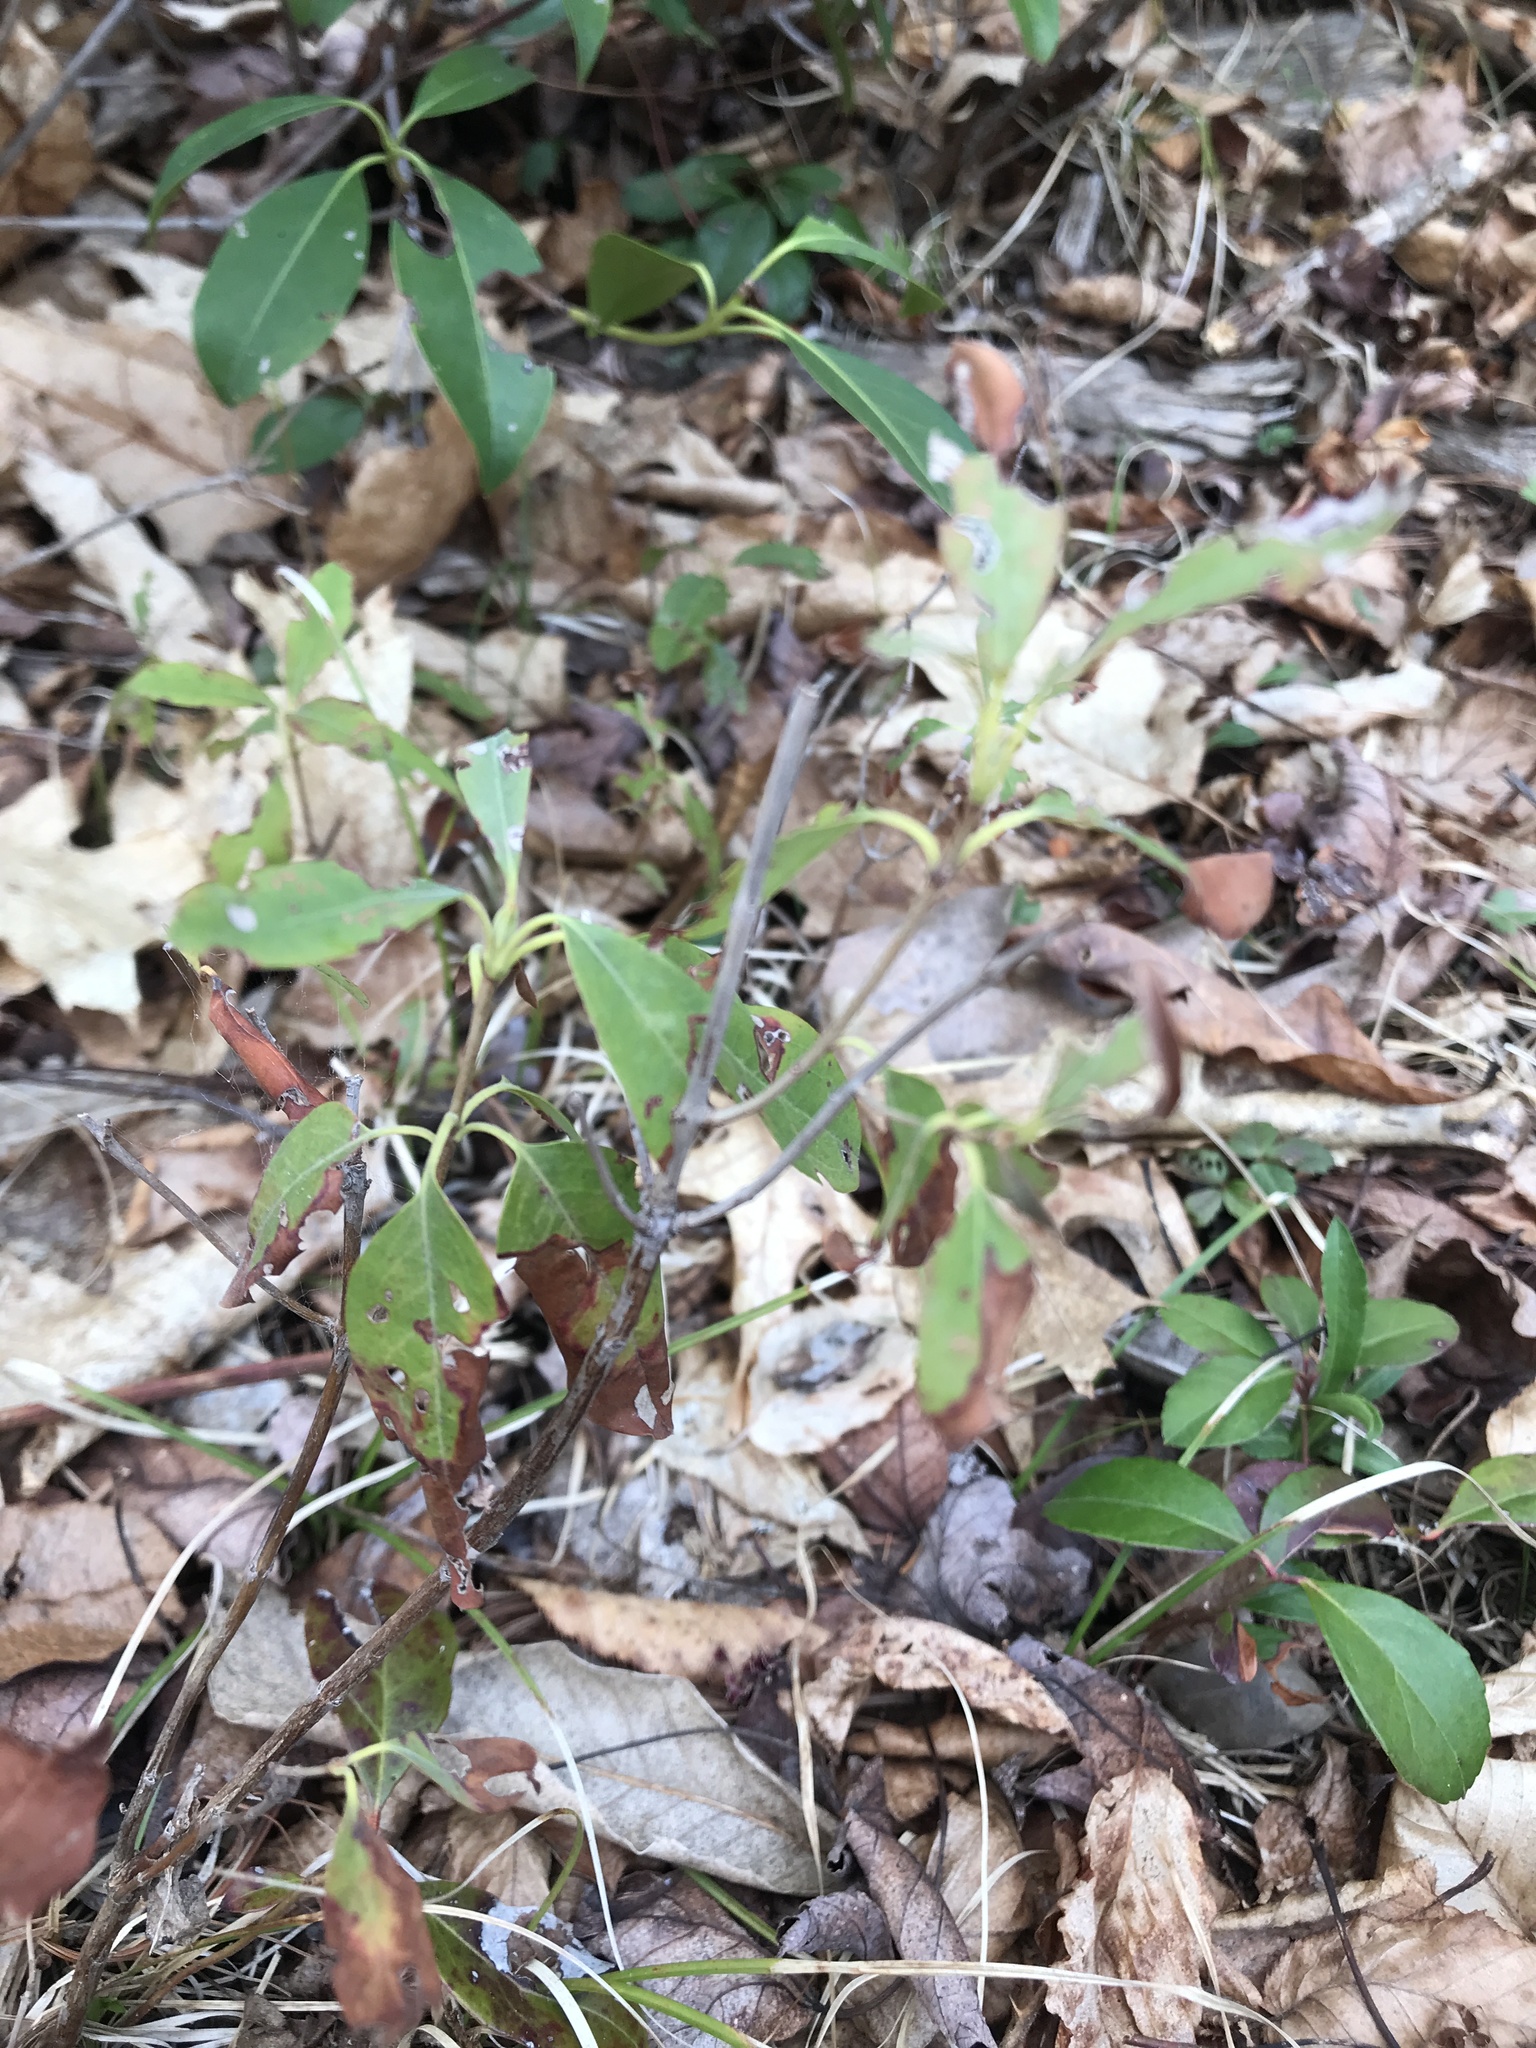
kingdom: Plantae
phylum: Tracheophyta
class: Magnoliopsida
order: Ericales
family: Ericaceae
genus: Kalmia
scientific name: Kalmia angustifolia
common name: Sheep-laurel
